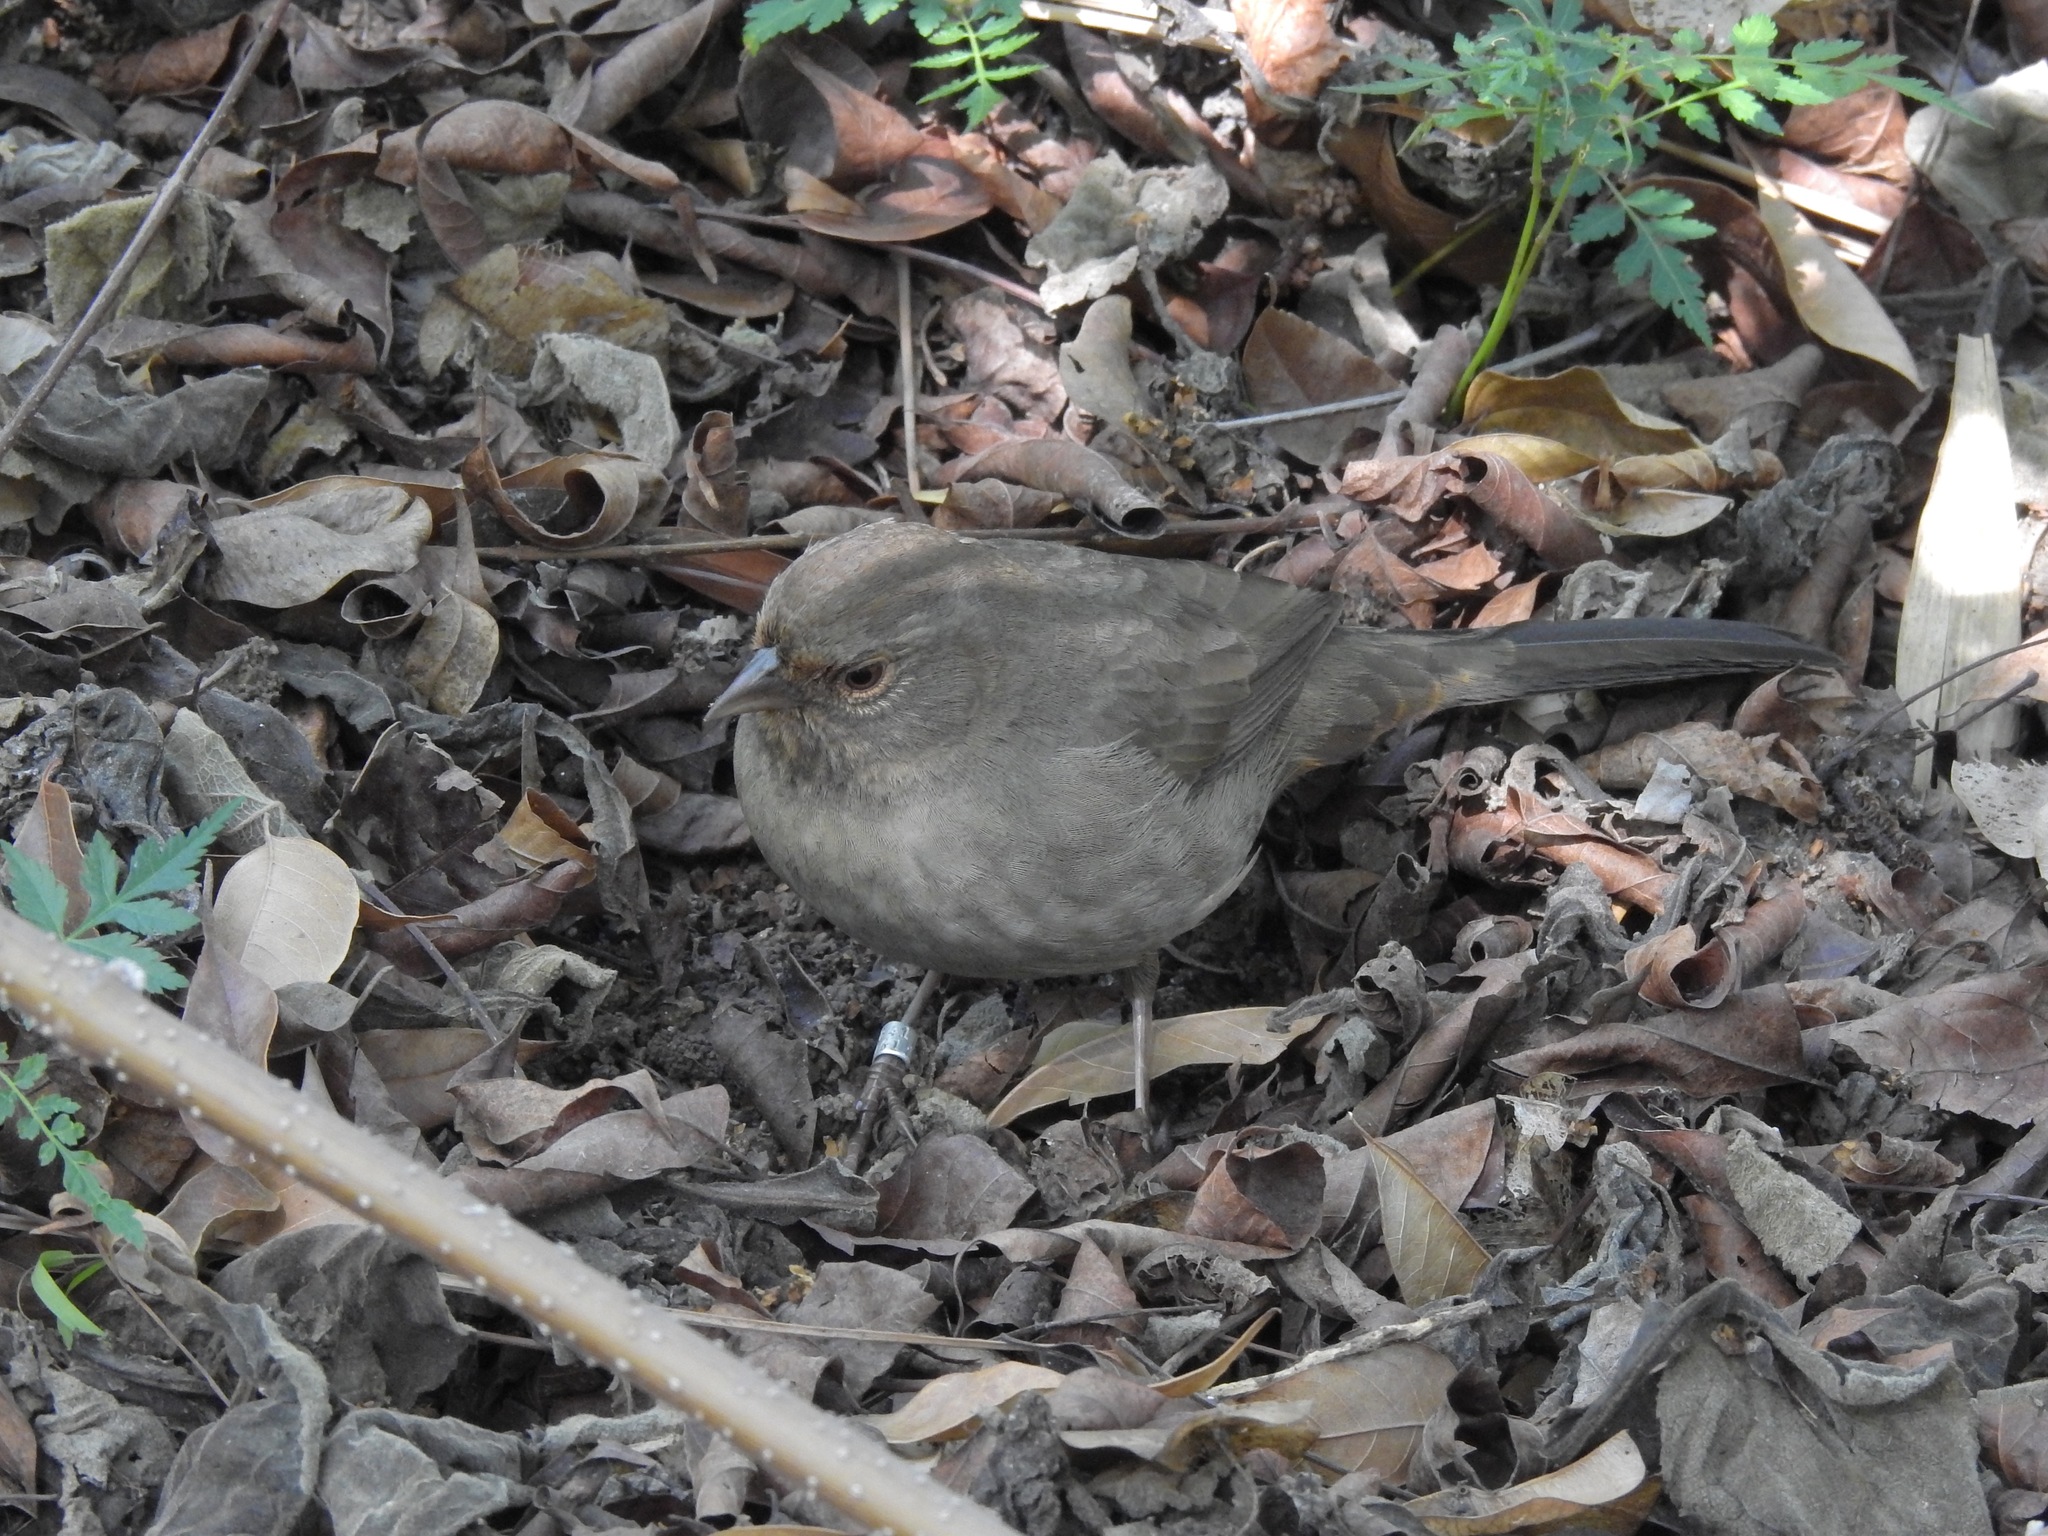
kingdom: Animalia
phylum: Chordata
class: Aves
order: Passeriformes
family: Passerellidae
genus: Melozone
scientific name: Melozone crissalis
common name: California towhee
